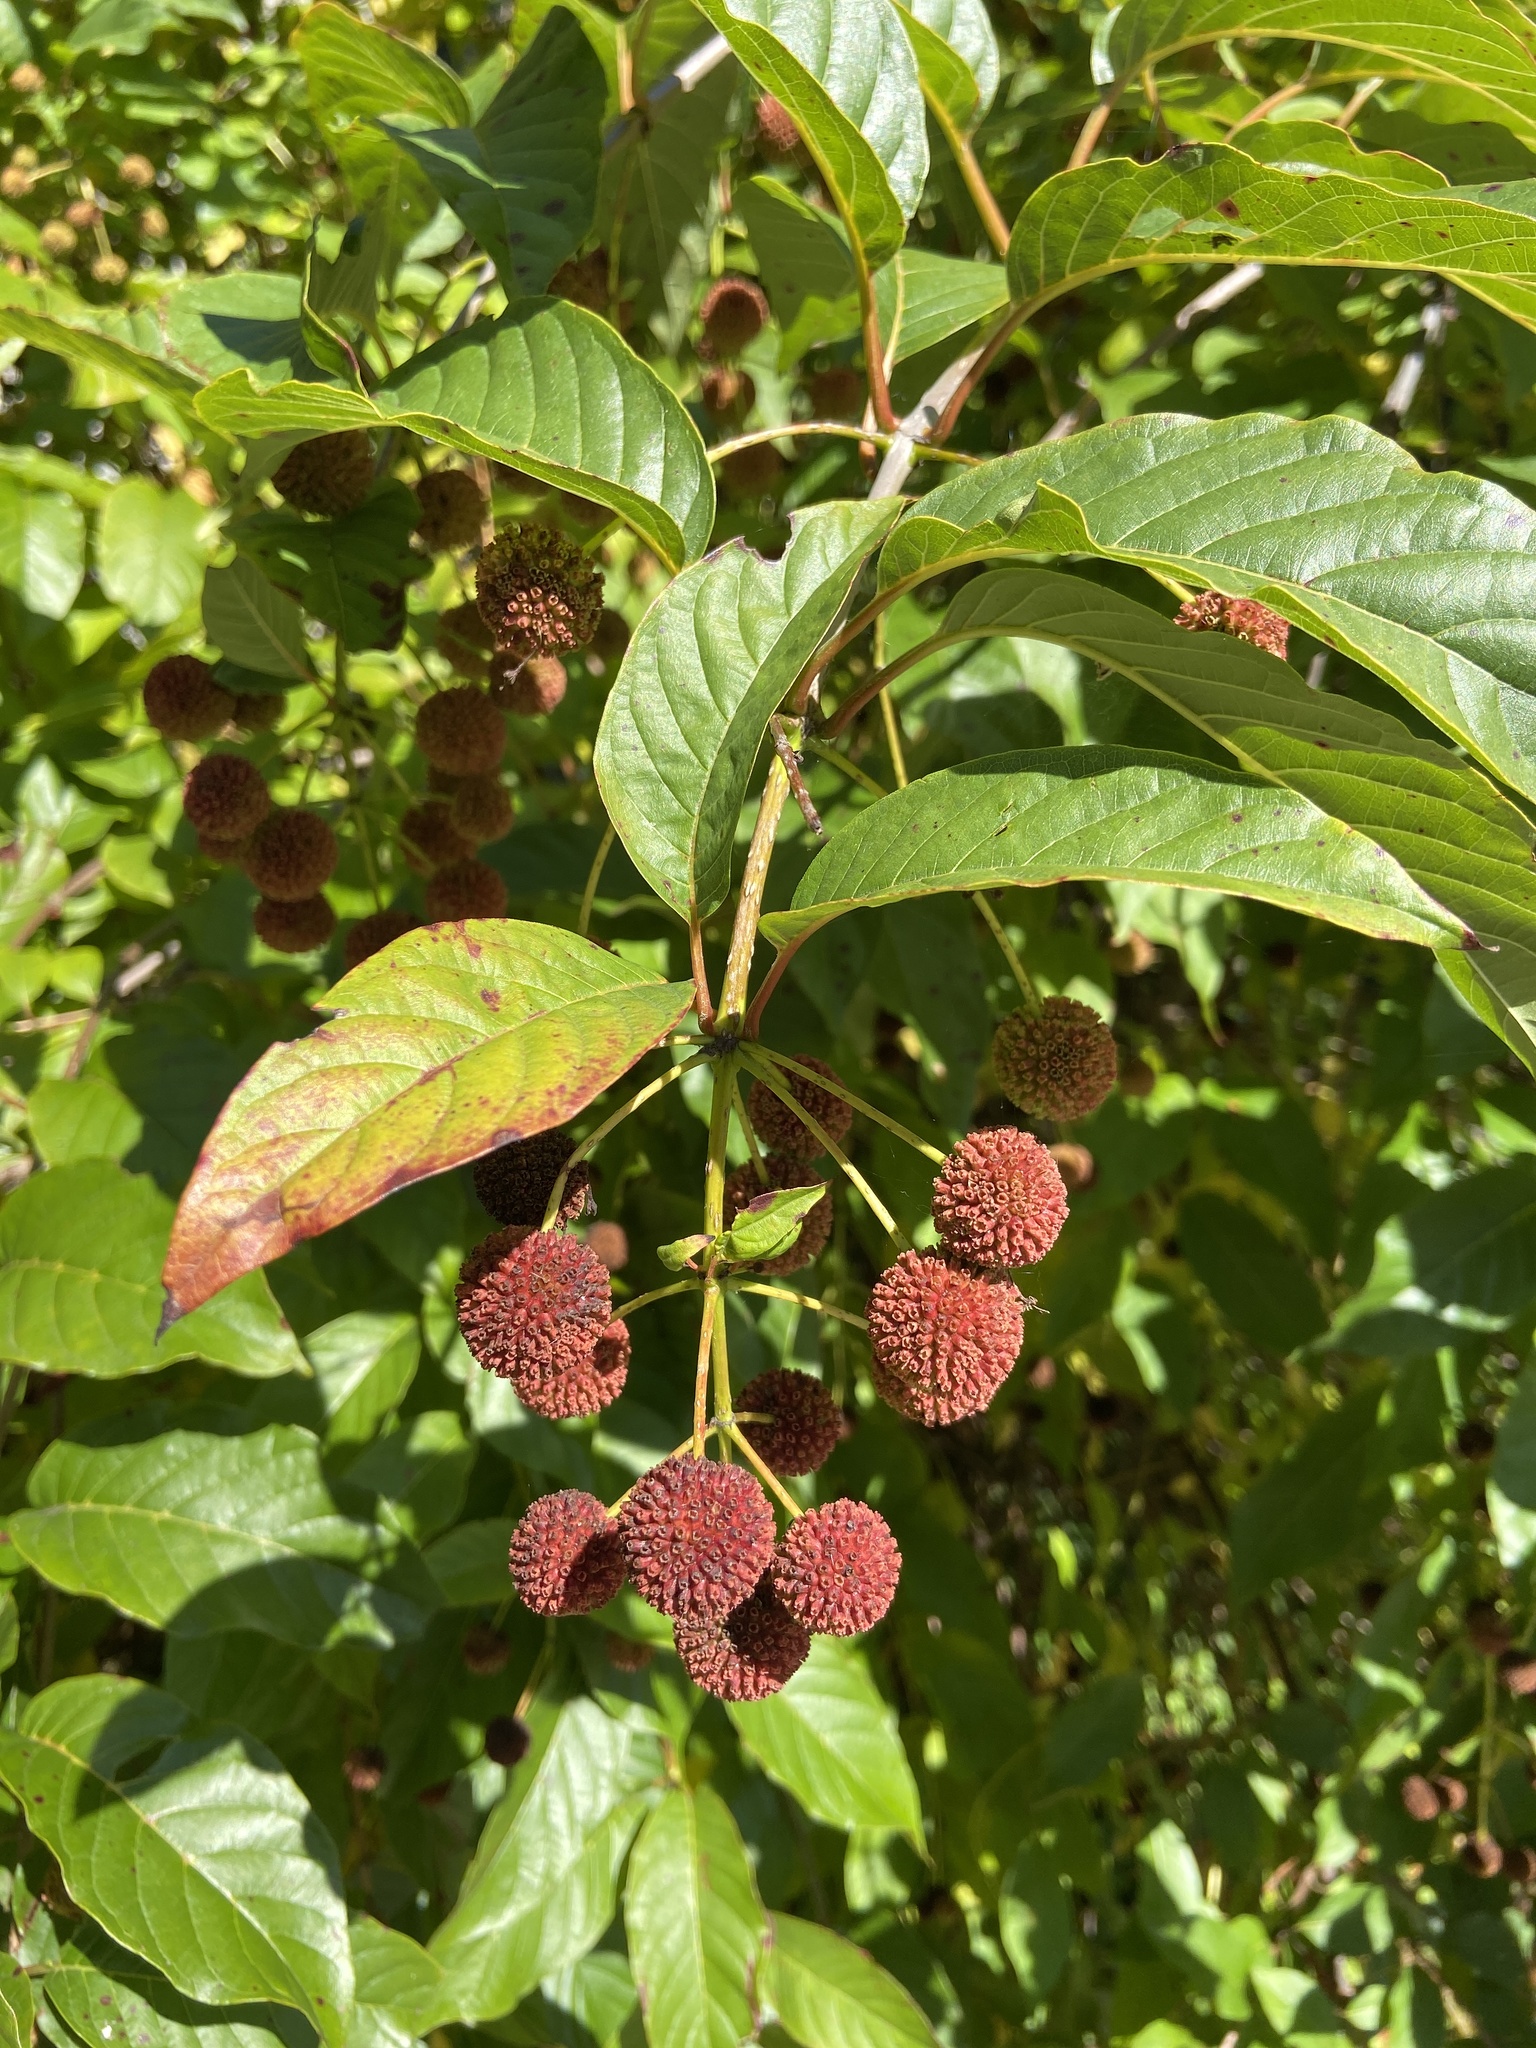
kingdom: Plantae
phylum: Tracheophyta
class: Magnoliopsida
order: Gentianales
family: Rubiaceae
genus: Cephalanthus
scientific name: Cephalanthus occidentalis
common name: Button-willow
